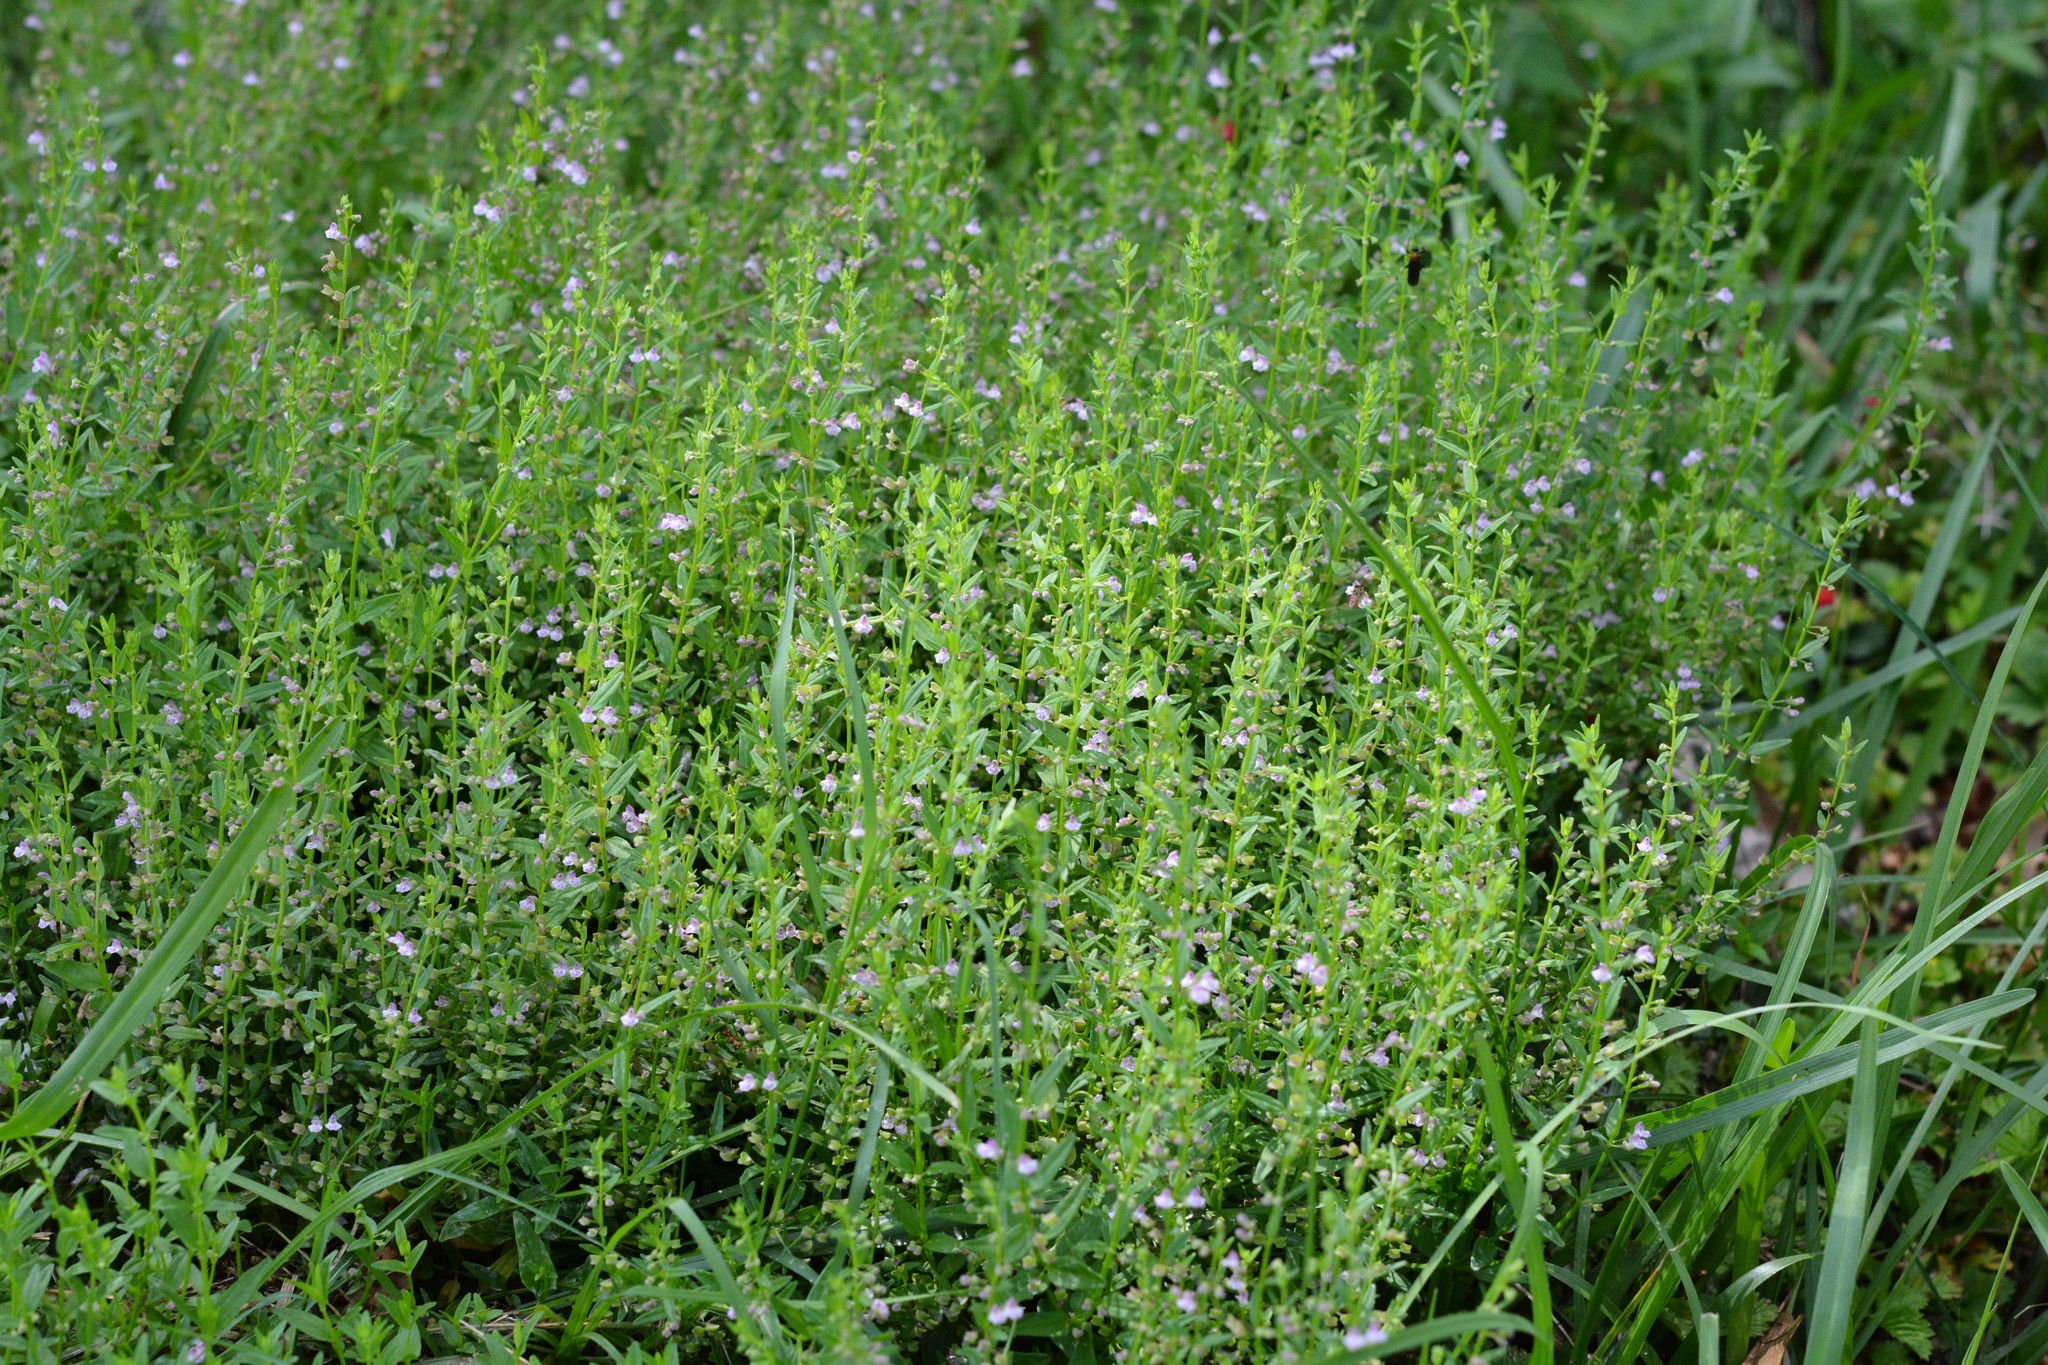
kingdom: Plantae
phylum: Tracheophyta
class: Magnoliopsida
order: Lamiales
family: Lamiaceae
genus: Scutellaria
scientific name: Scutellaria racemosa
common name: South american skullcap
